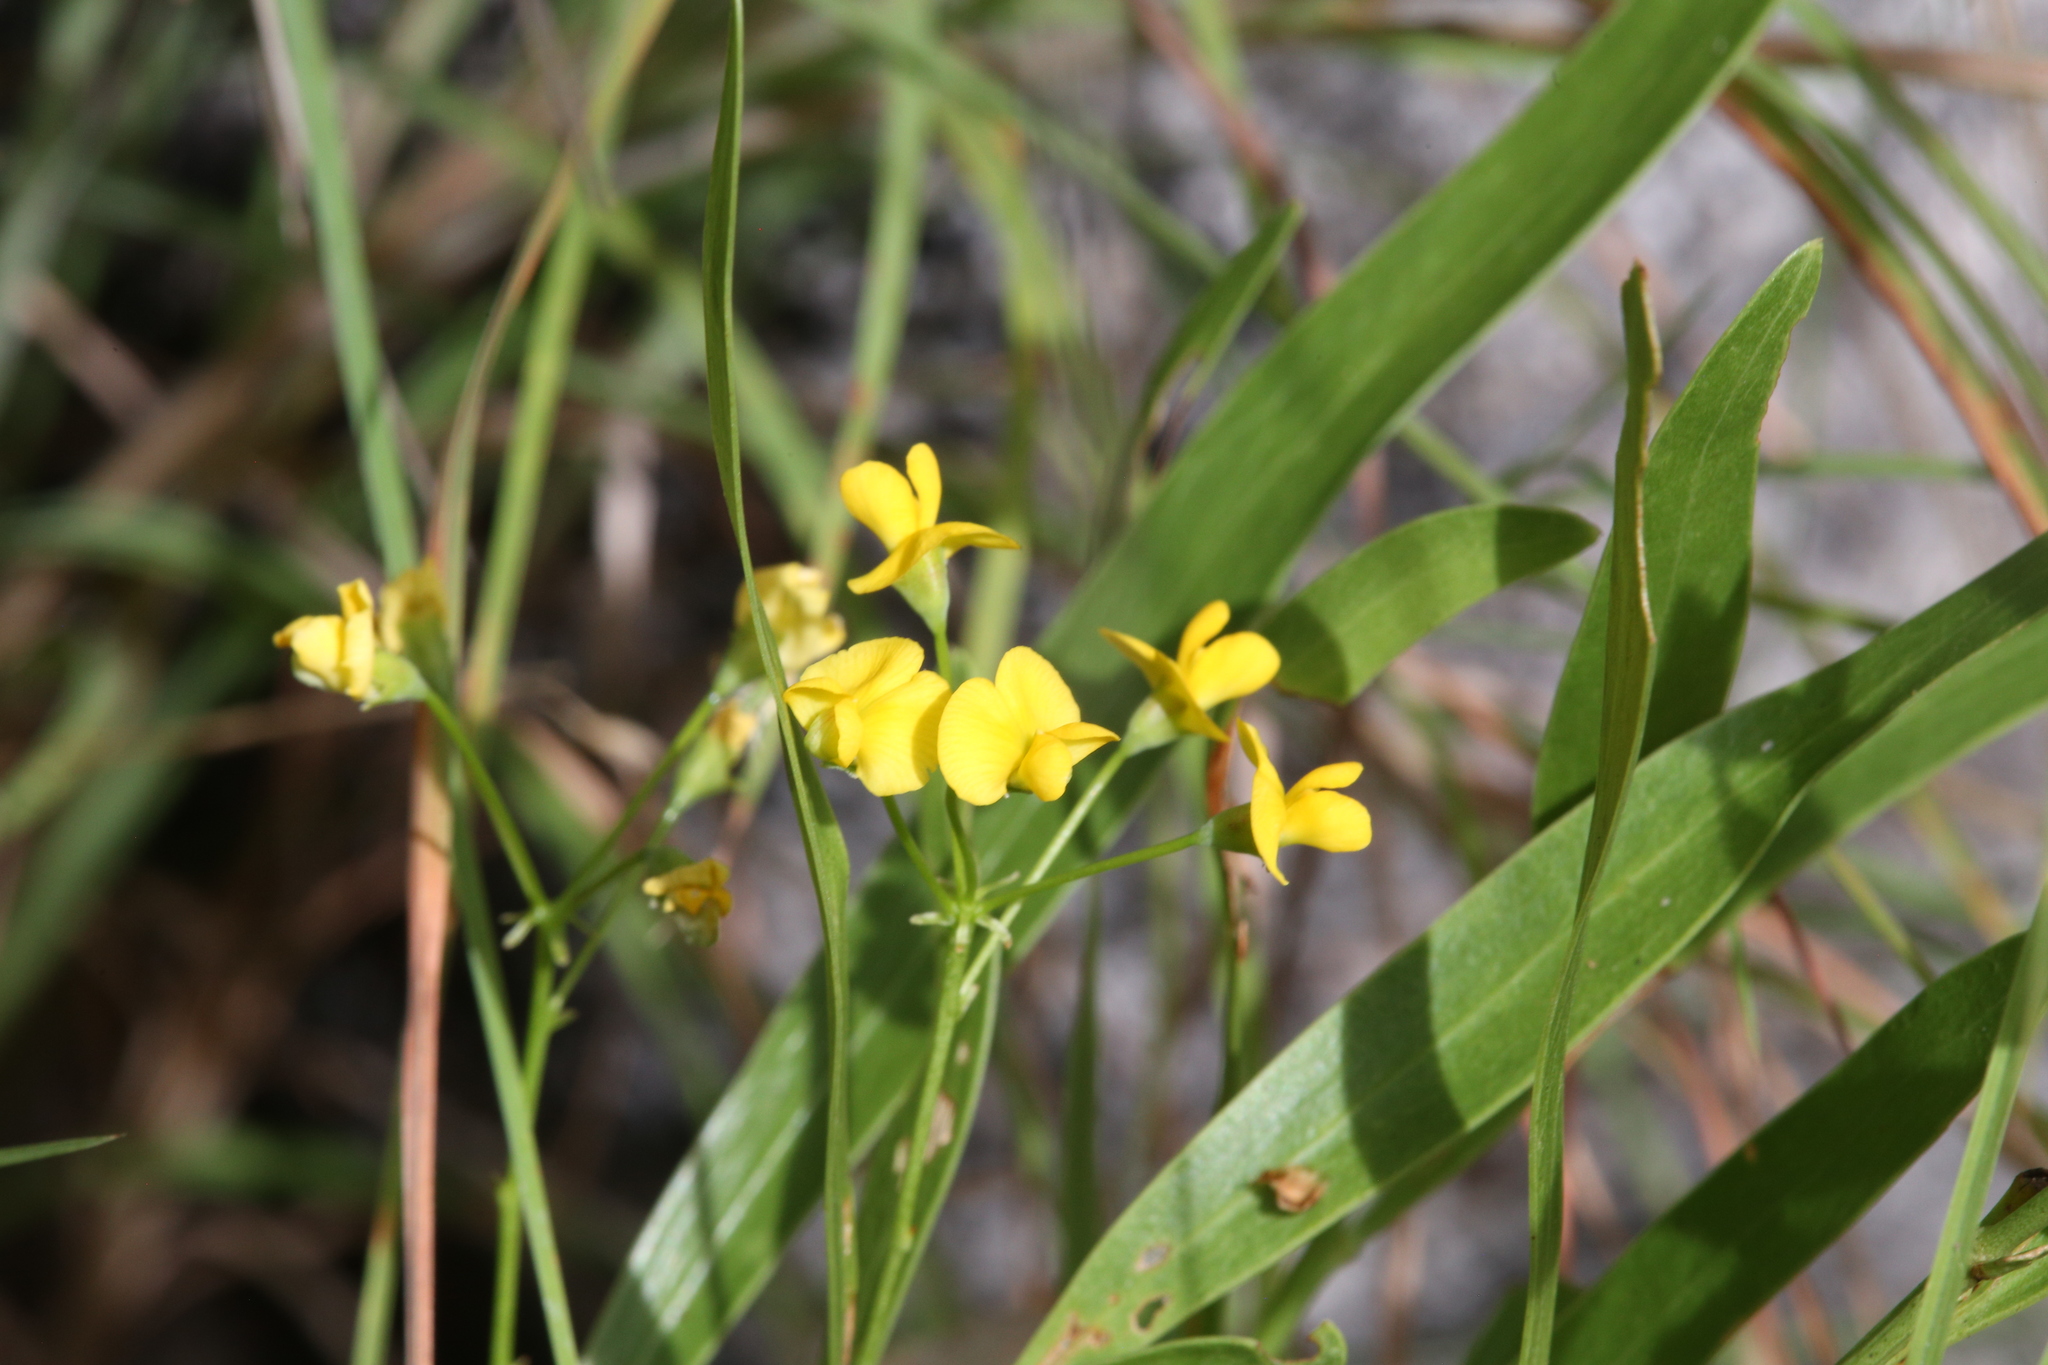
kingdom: Plantae
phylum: Tracheophyta
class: Magnoliopsida
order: Fabales
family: Fabaceae
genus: Daviesia
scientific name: Daviesia flava
